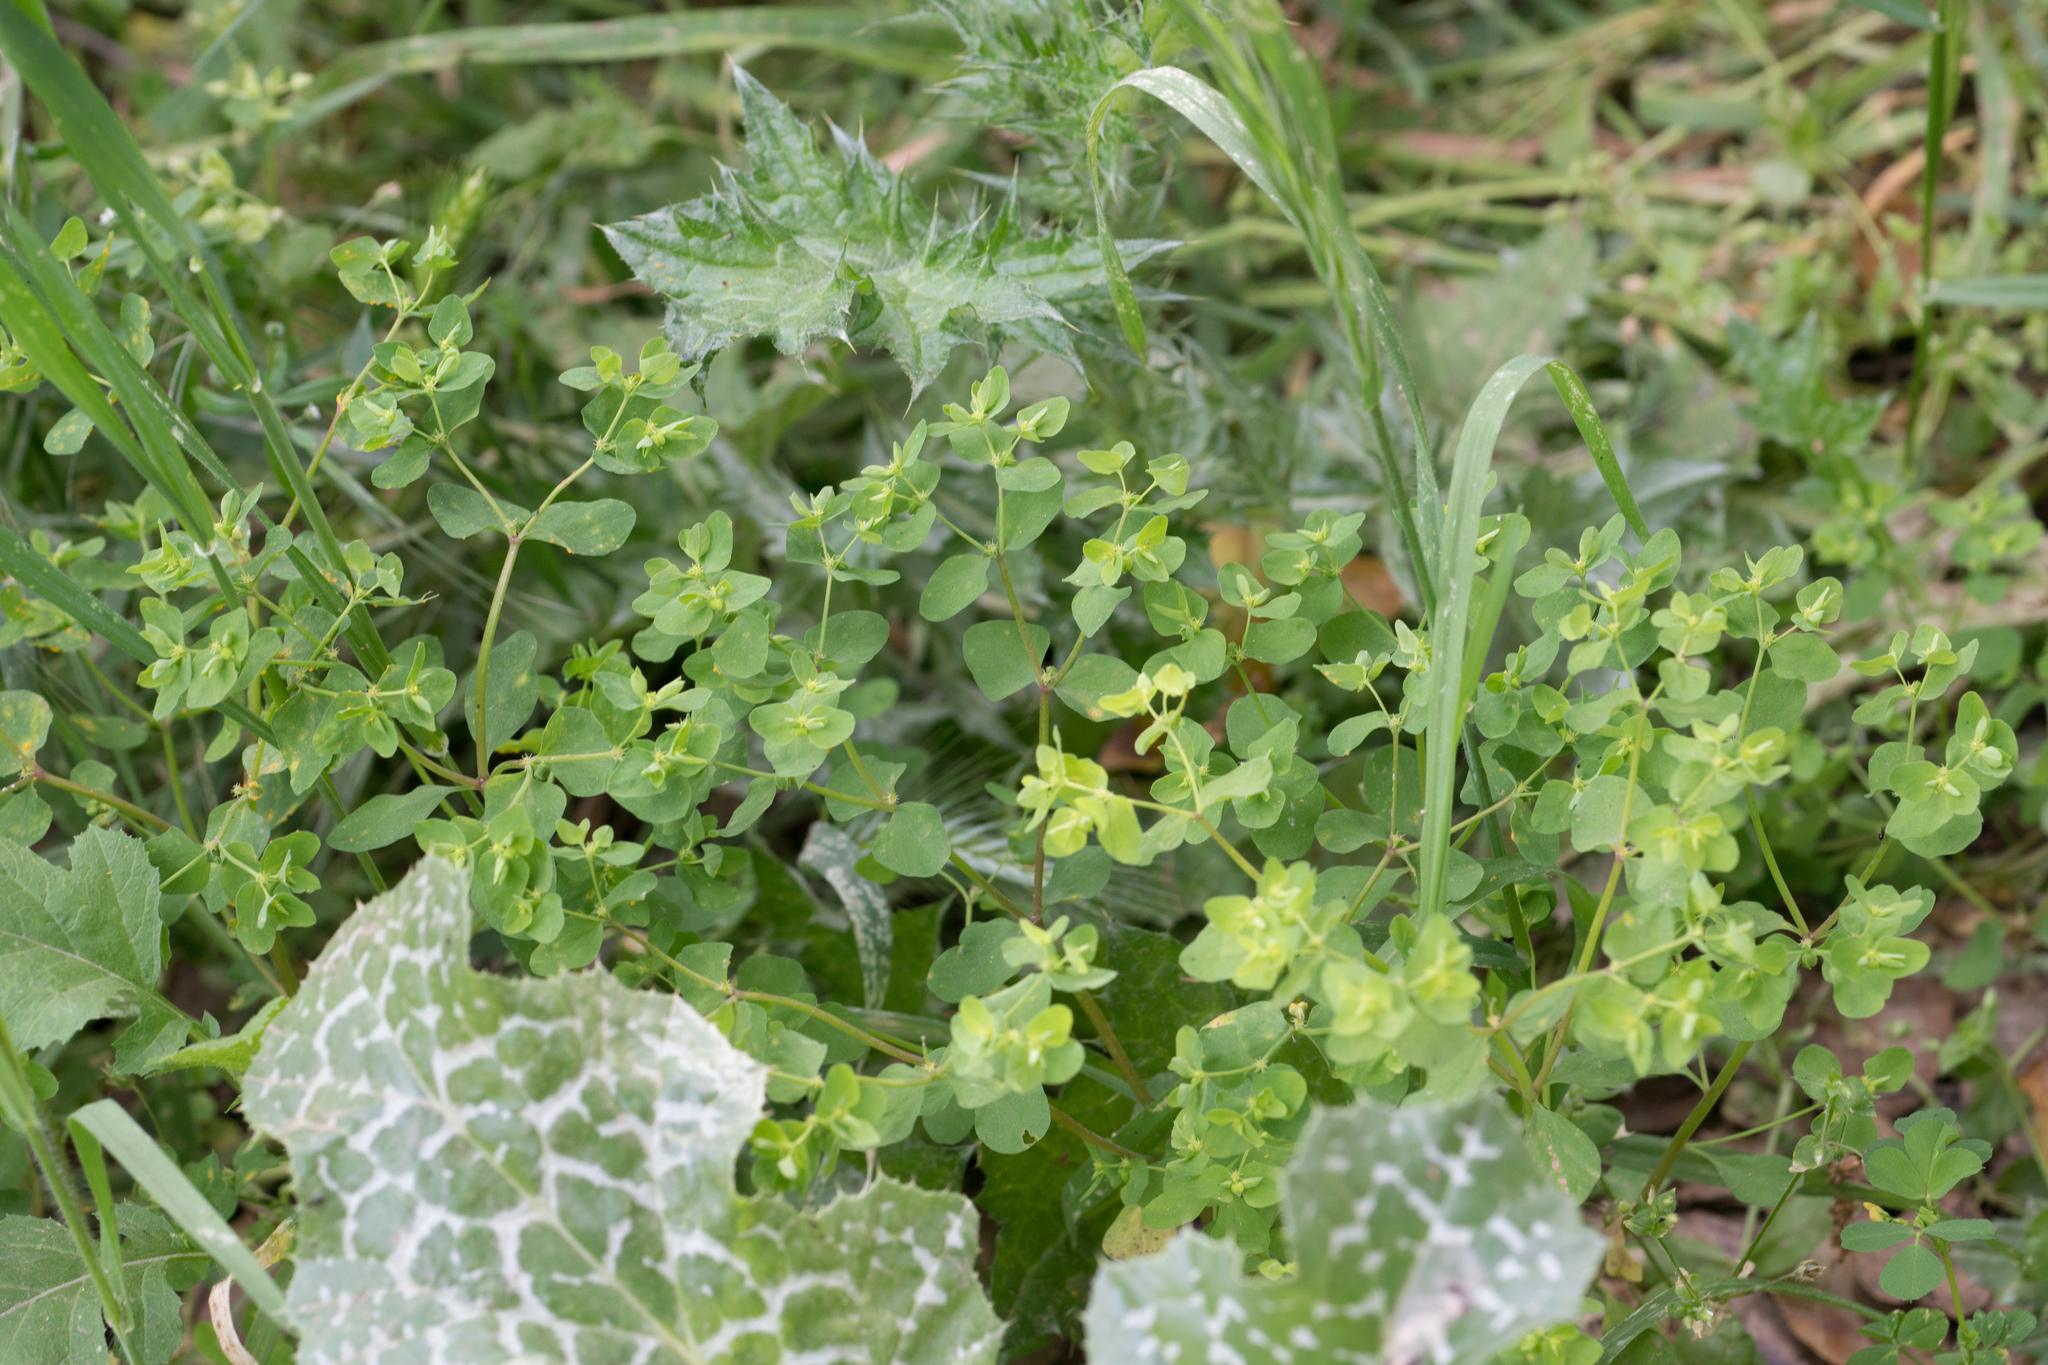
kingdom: Plantae
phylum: Tracheophyta
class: Magnoliopsida
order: Malpighiales
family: Euphorbiaceae
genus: Euphorbia
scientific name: Euphorbia peplus
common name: Petty spurge
